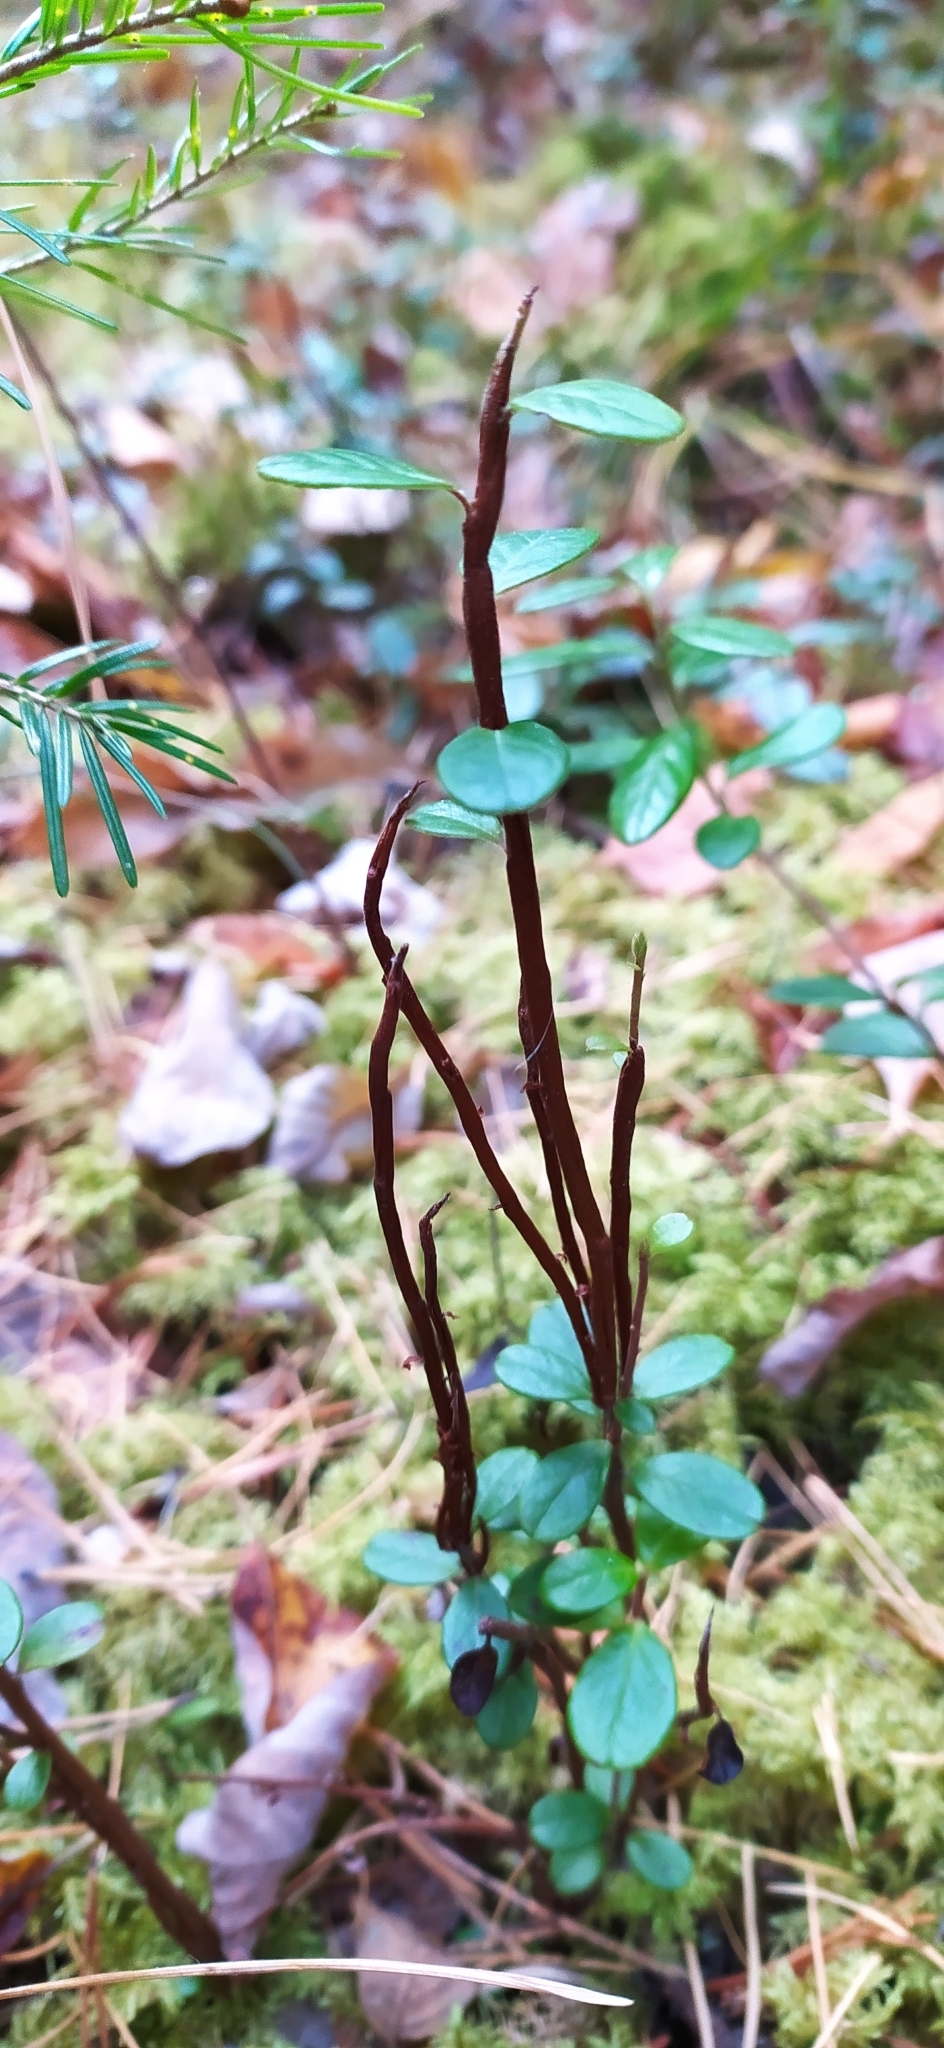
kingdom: Fungi
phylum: Basidiomycota
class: Pucciniomycetes
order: Pucciniales
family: Pucciniastraceae
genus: Calyptospora
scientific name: Calyptospora columnaris
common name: Huckleberry broom rust fungus
